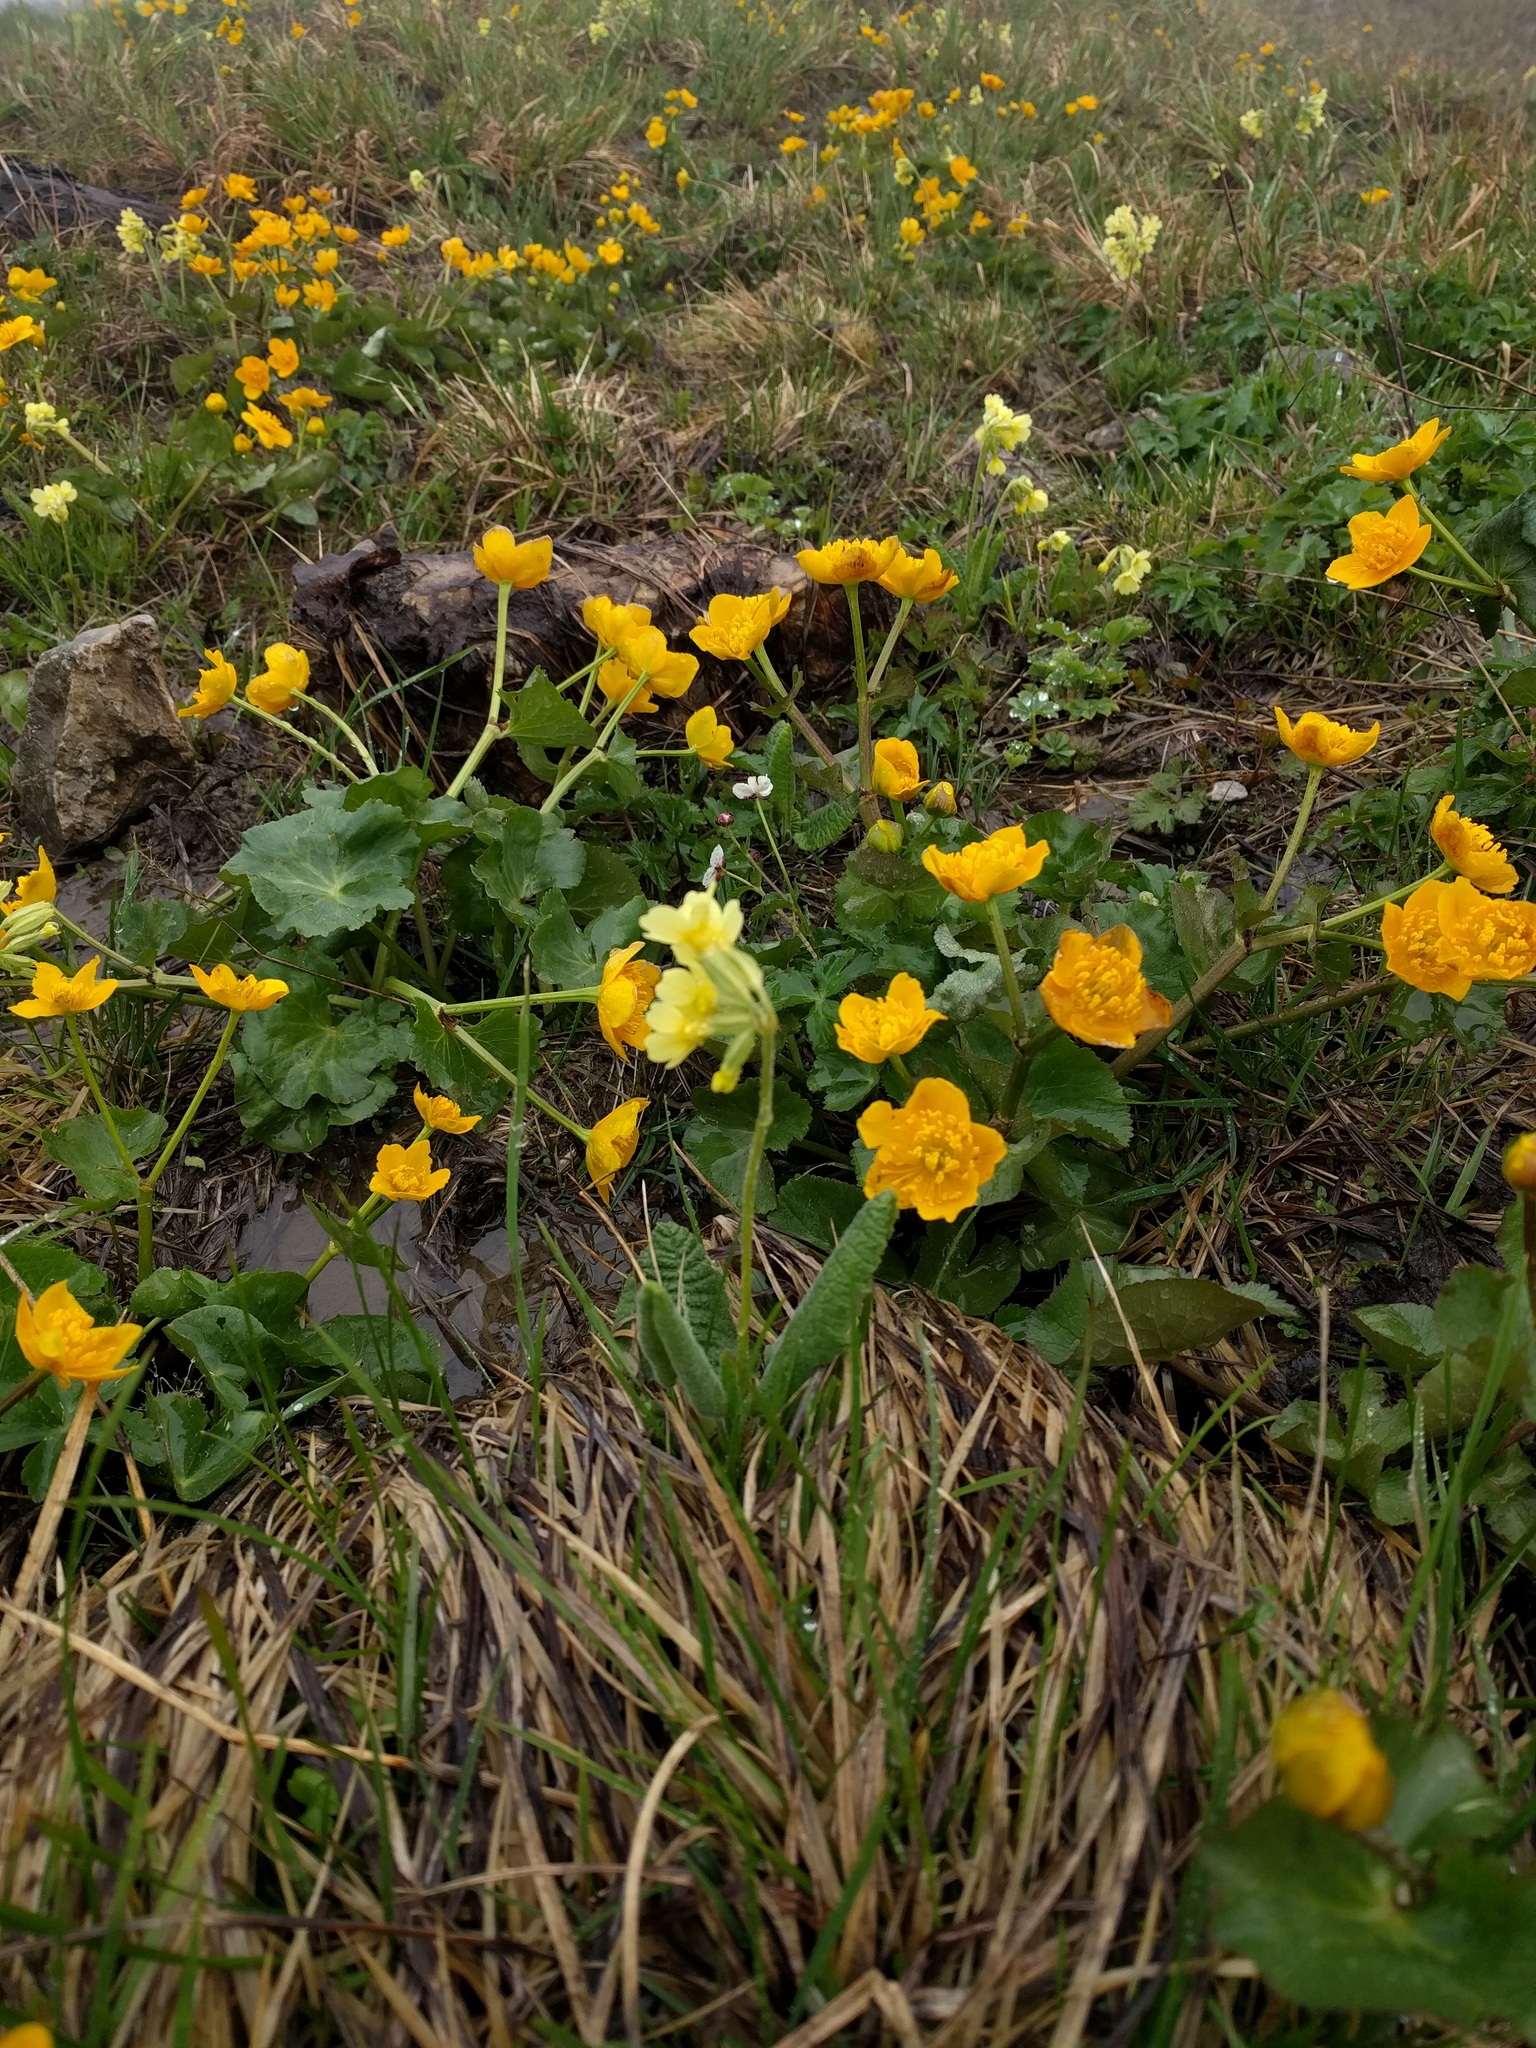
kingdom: Plantae
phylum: Tracheophyta
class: Magnoliopsida
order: Ericales
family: Primulaceae
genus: Primula
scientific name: Primula elatior
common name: Oxlip
